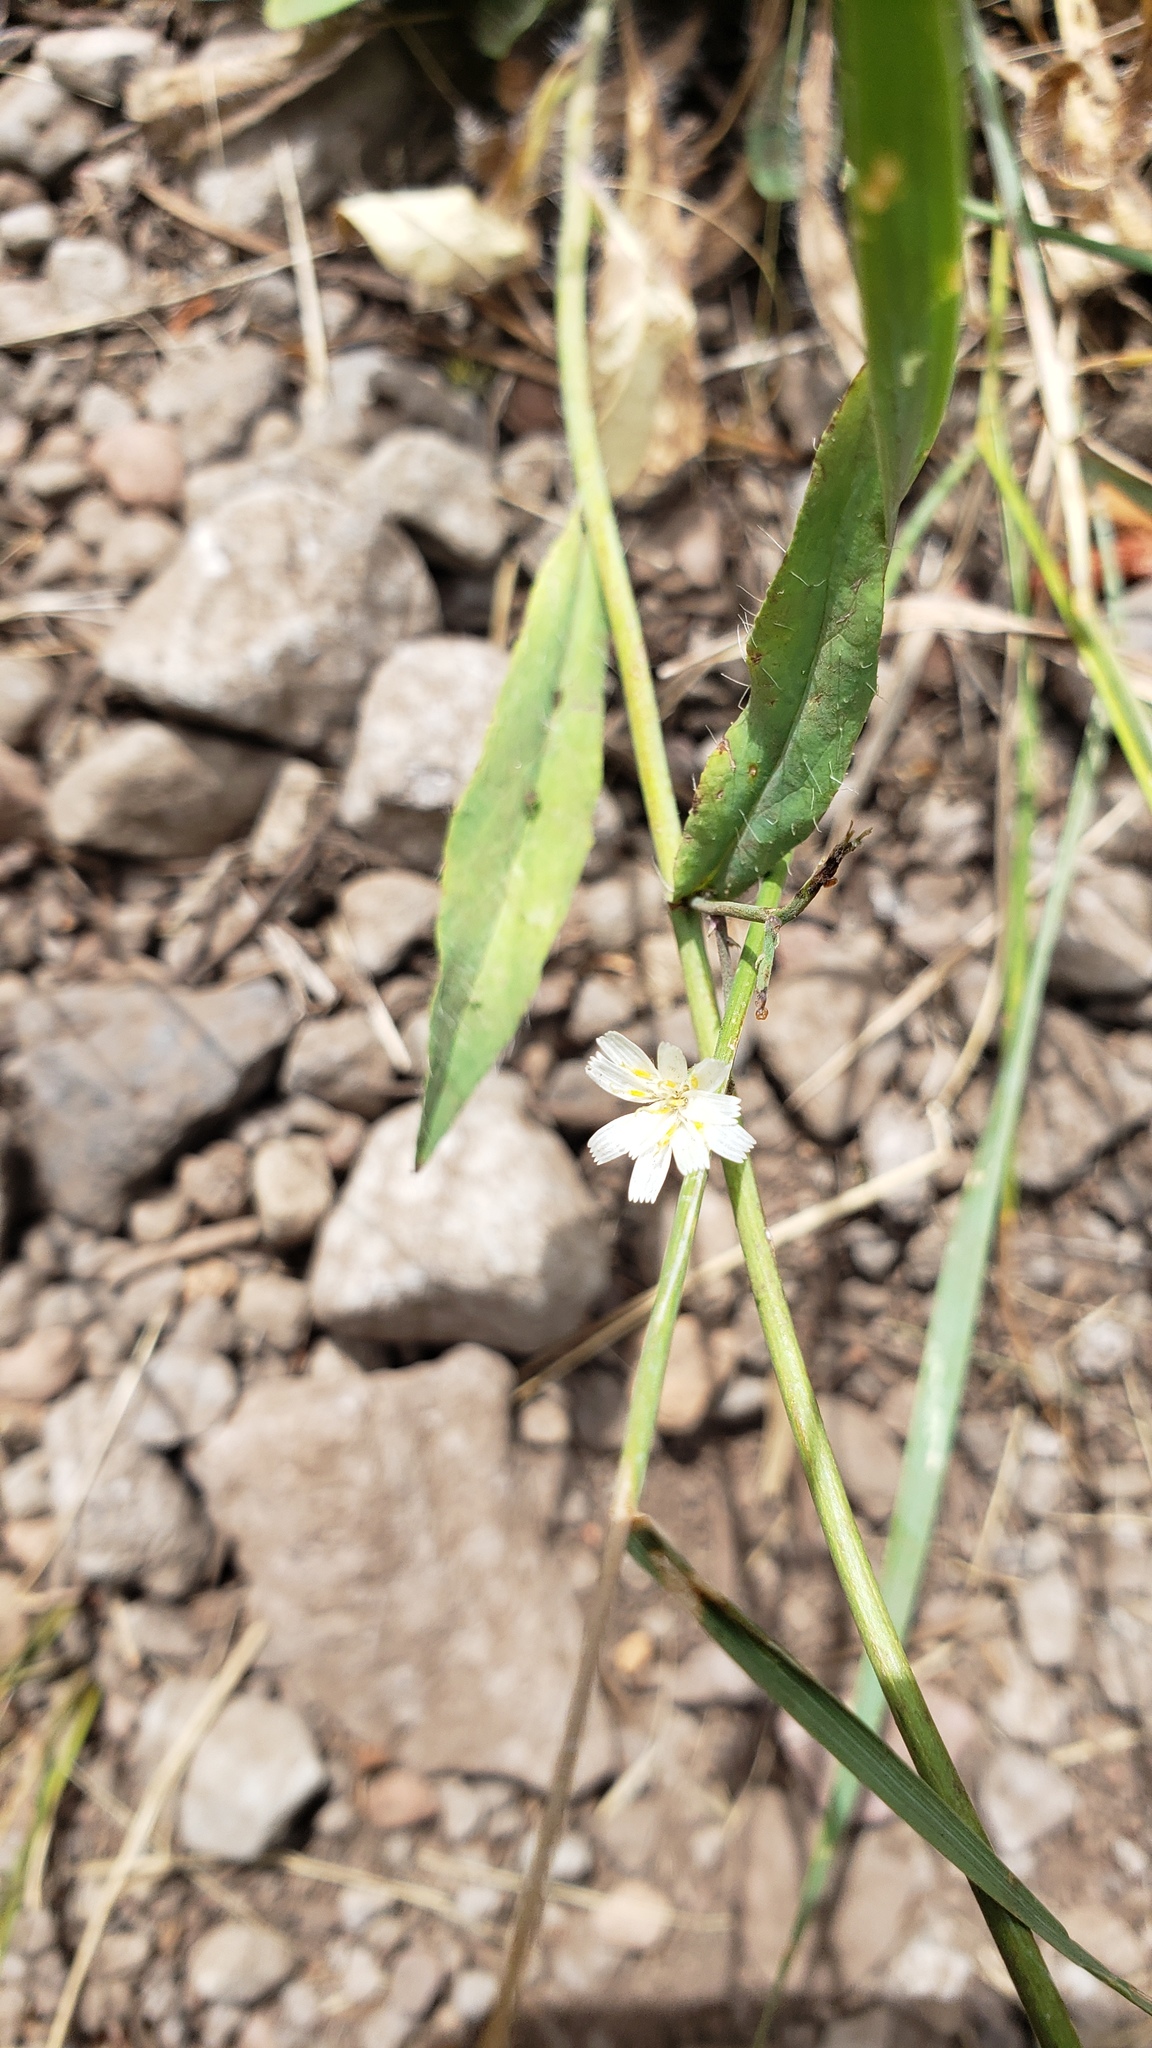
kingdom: Plantae
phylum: Tracheophyta
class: Magnoliopsida
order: Asterales
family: Asteraceae
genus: Hieracium
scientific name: Hieracium albiflorum
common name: White hawkweed
